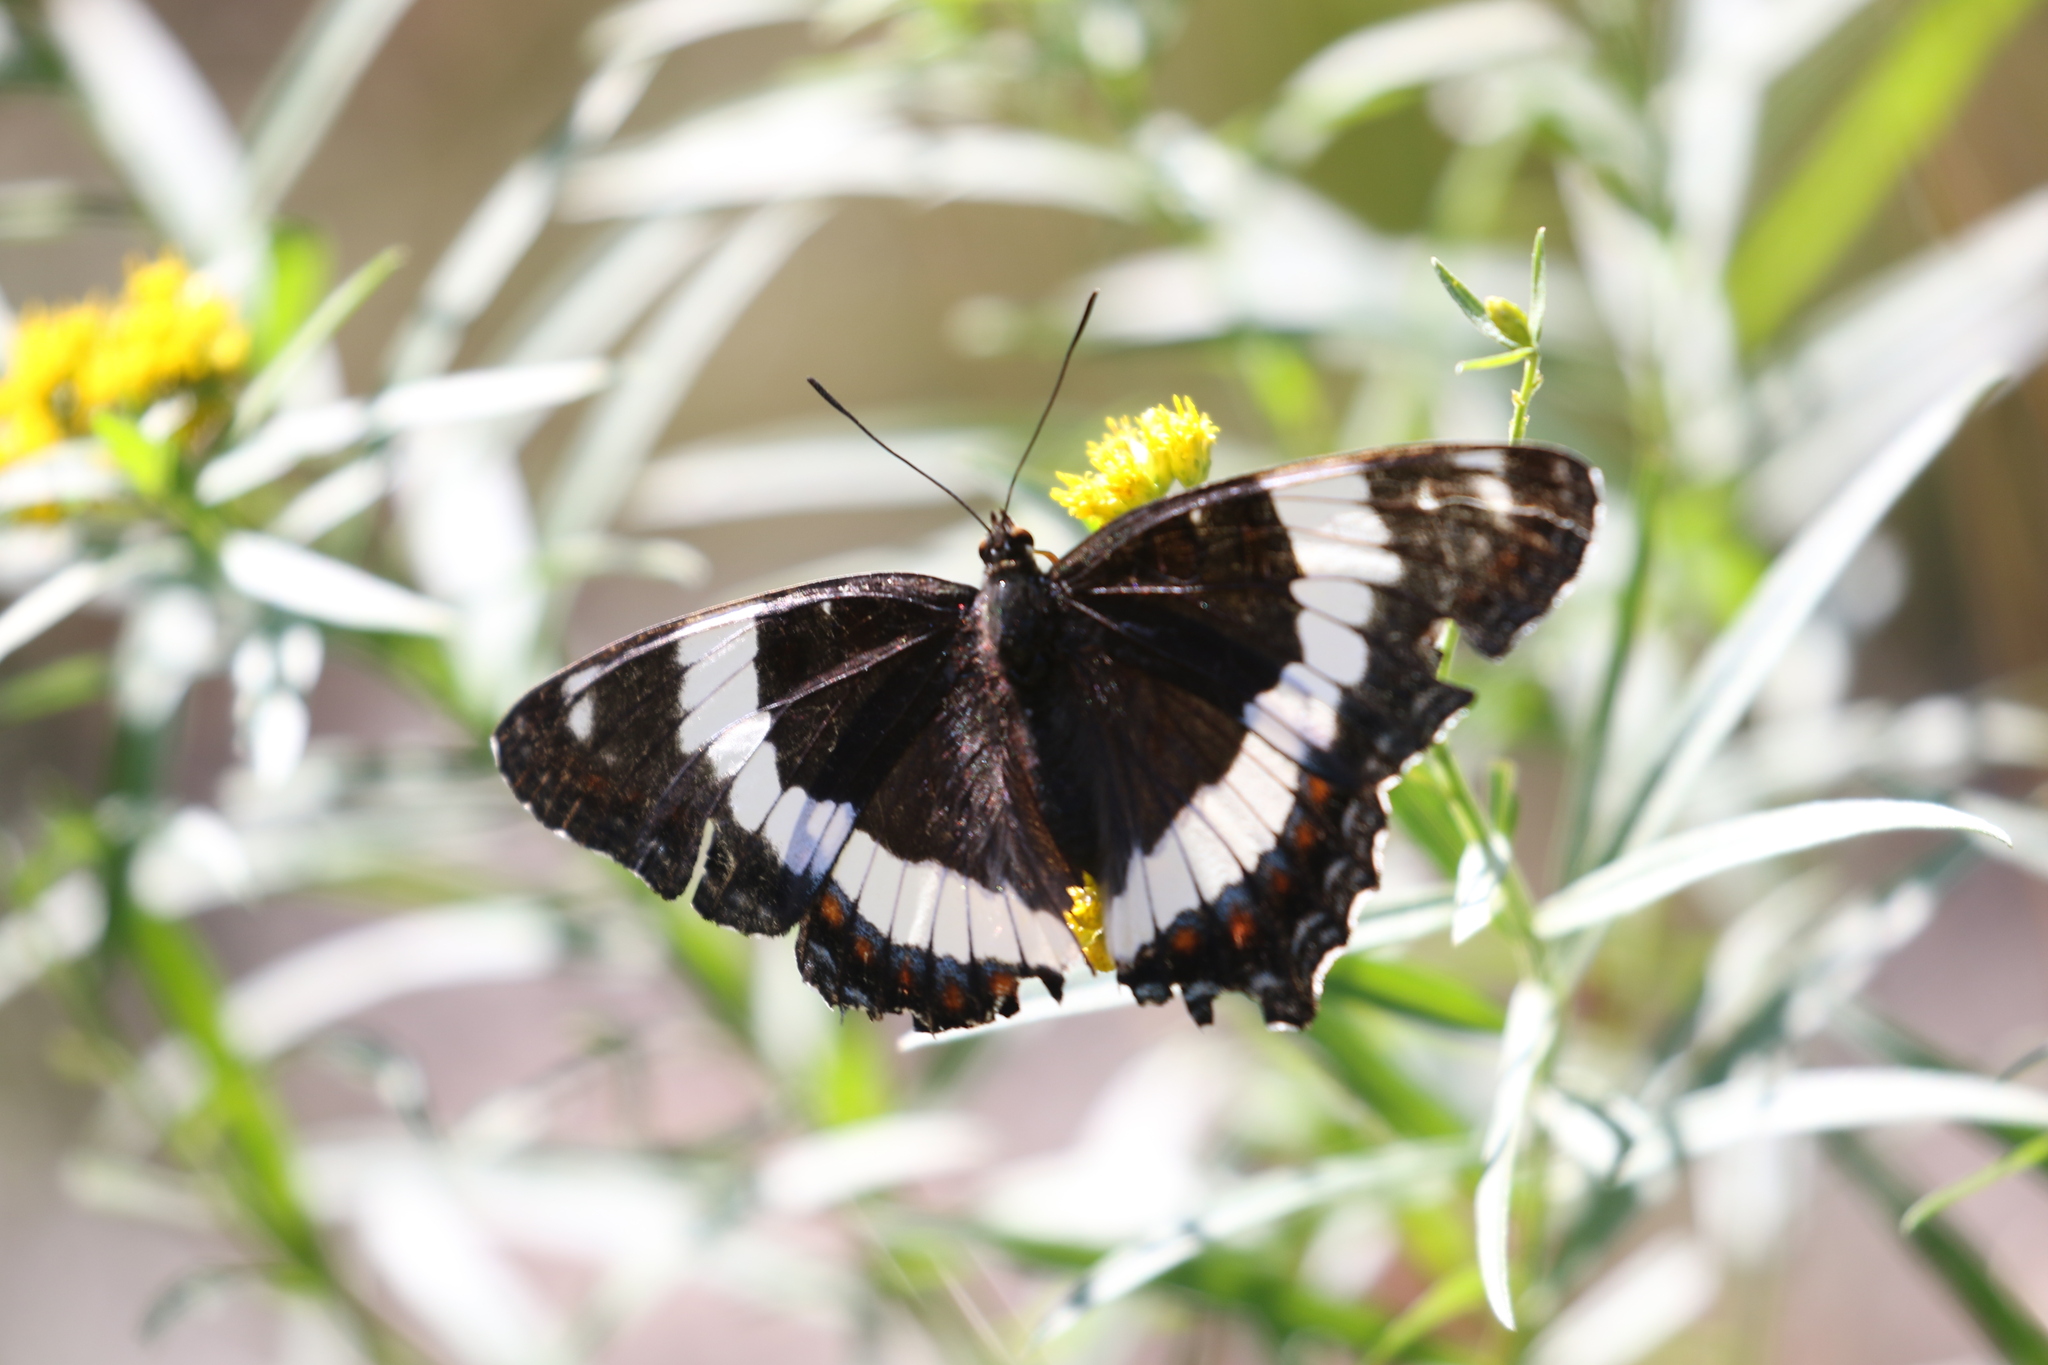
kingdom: Animalia
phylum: Arthropoda
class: Insecta
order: Lepidoptera
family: Nymphalidae
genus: Limenitis
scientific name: Limenitis arthemis
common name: Red-spotted admiral
